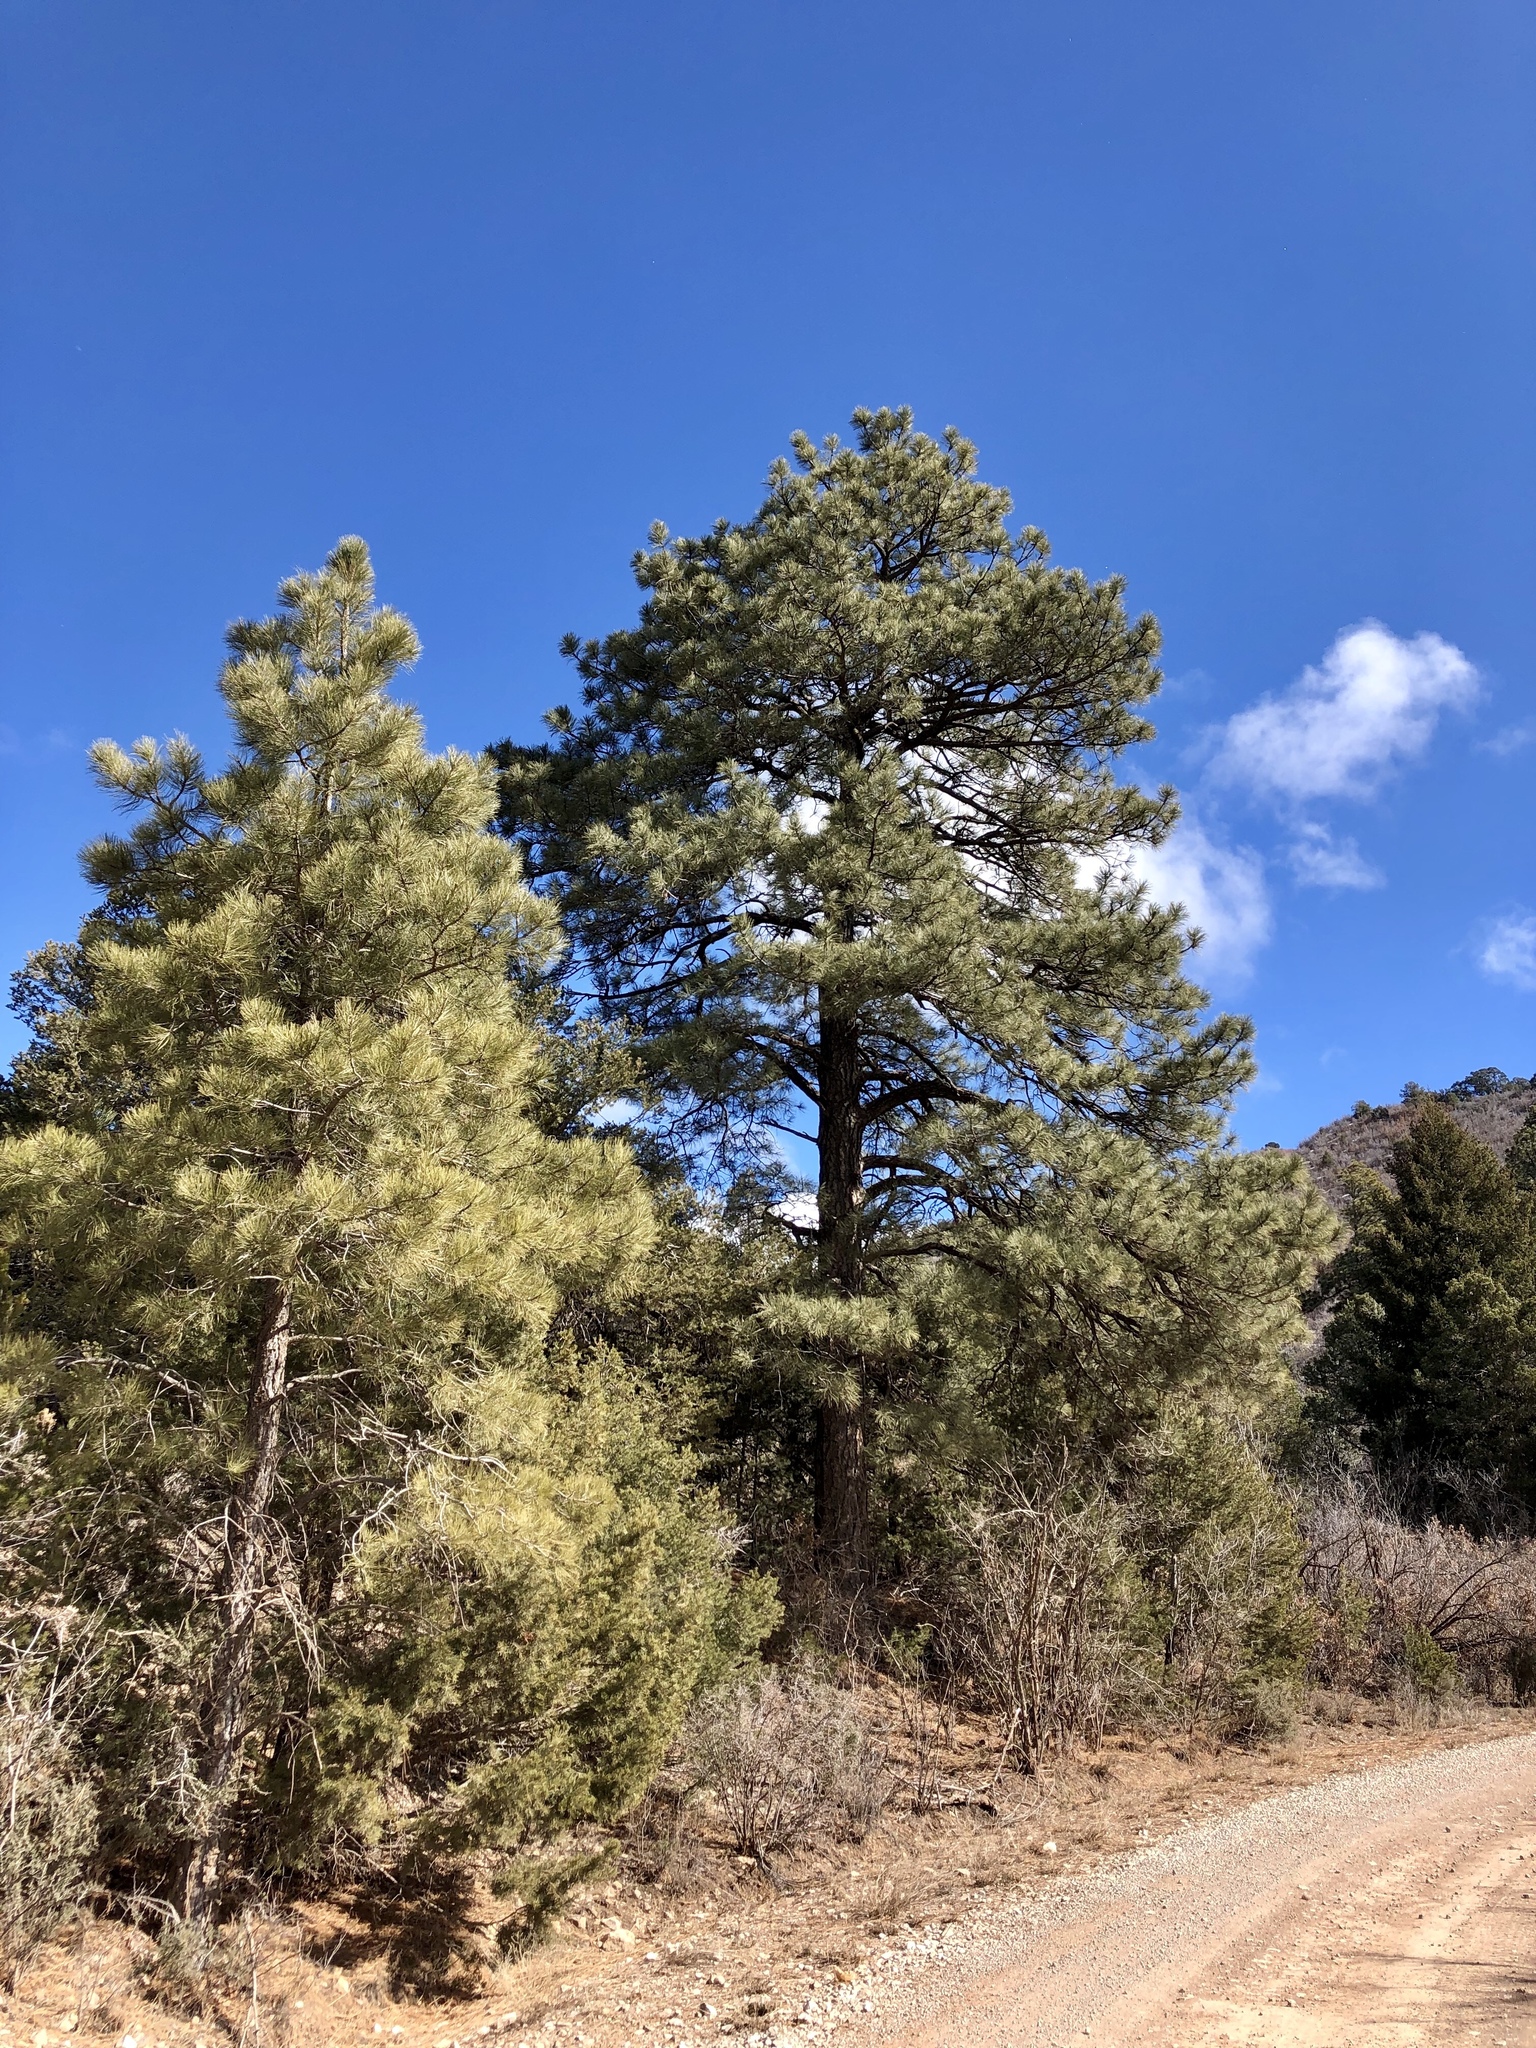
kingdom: Plantae
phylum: Tracheophyta
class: Pinopsida
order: Pinales
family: Pinaceae
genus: Pinus
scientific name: Pinus ponderosa
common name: Western yellow-pine
